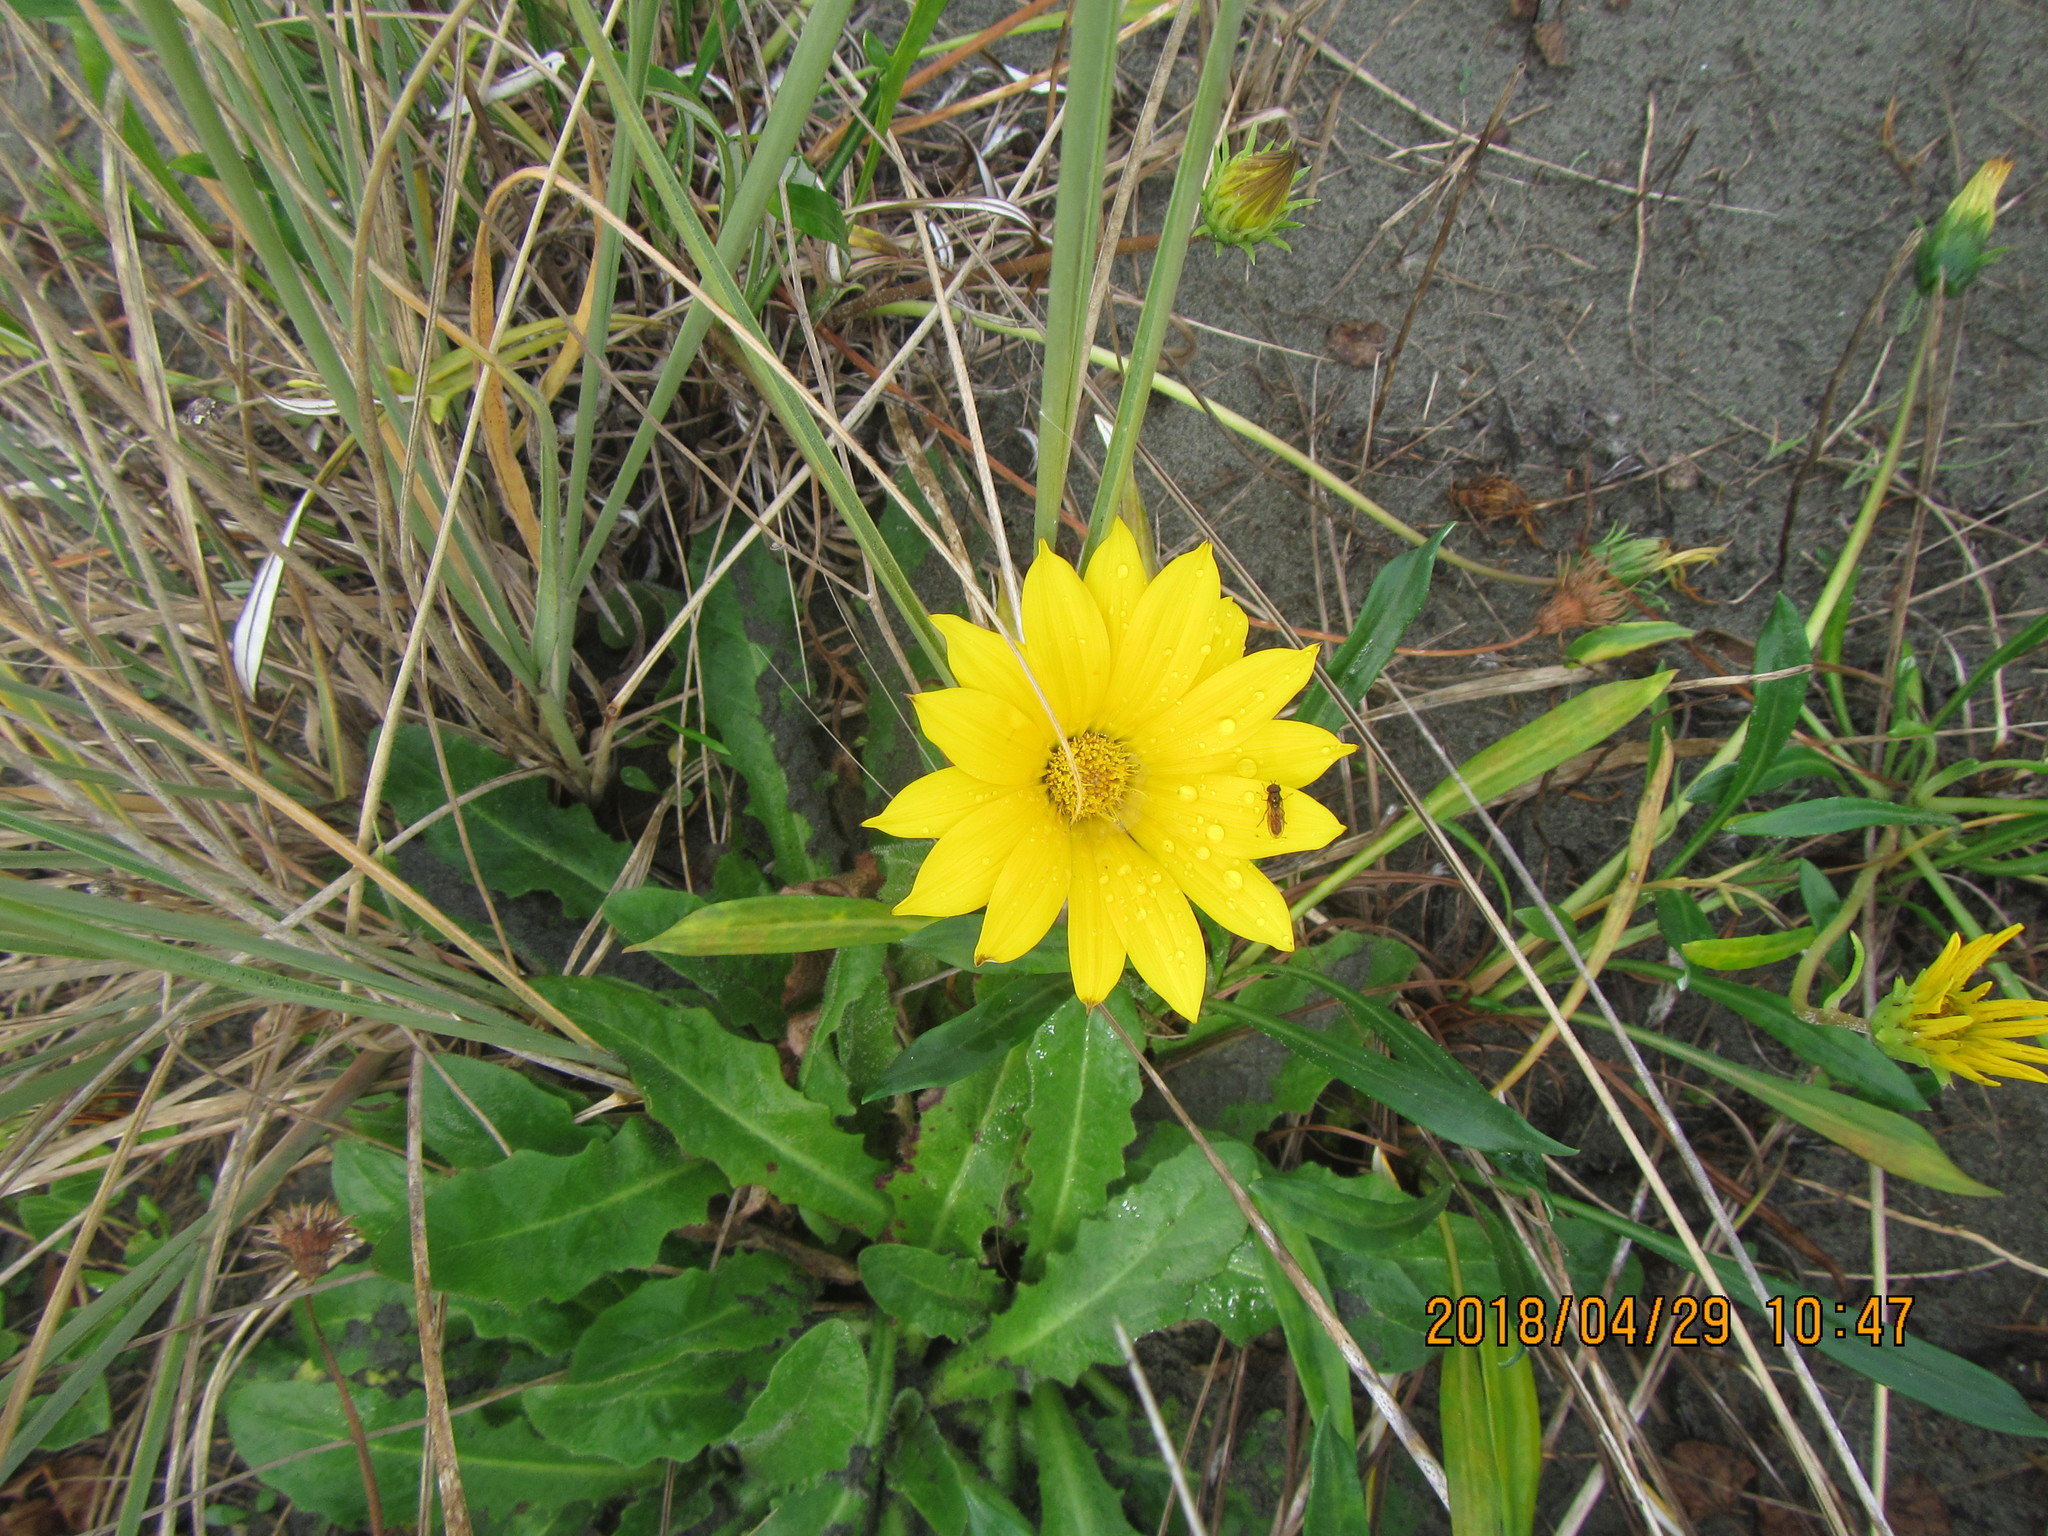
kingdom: Animalia
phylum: Arthropoda
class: Insecta
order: Diptera
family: Syrphidae
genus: Melanostoma
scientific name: Melanostoma fasciatum
